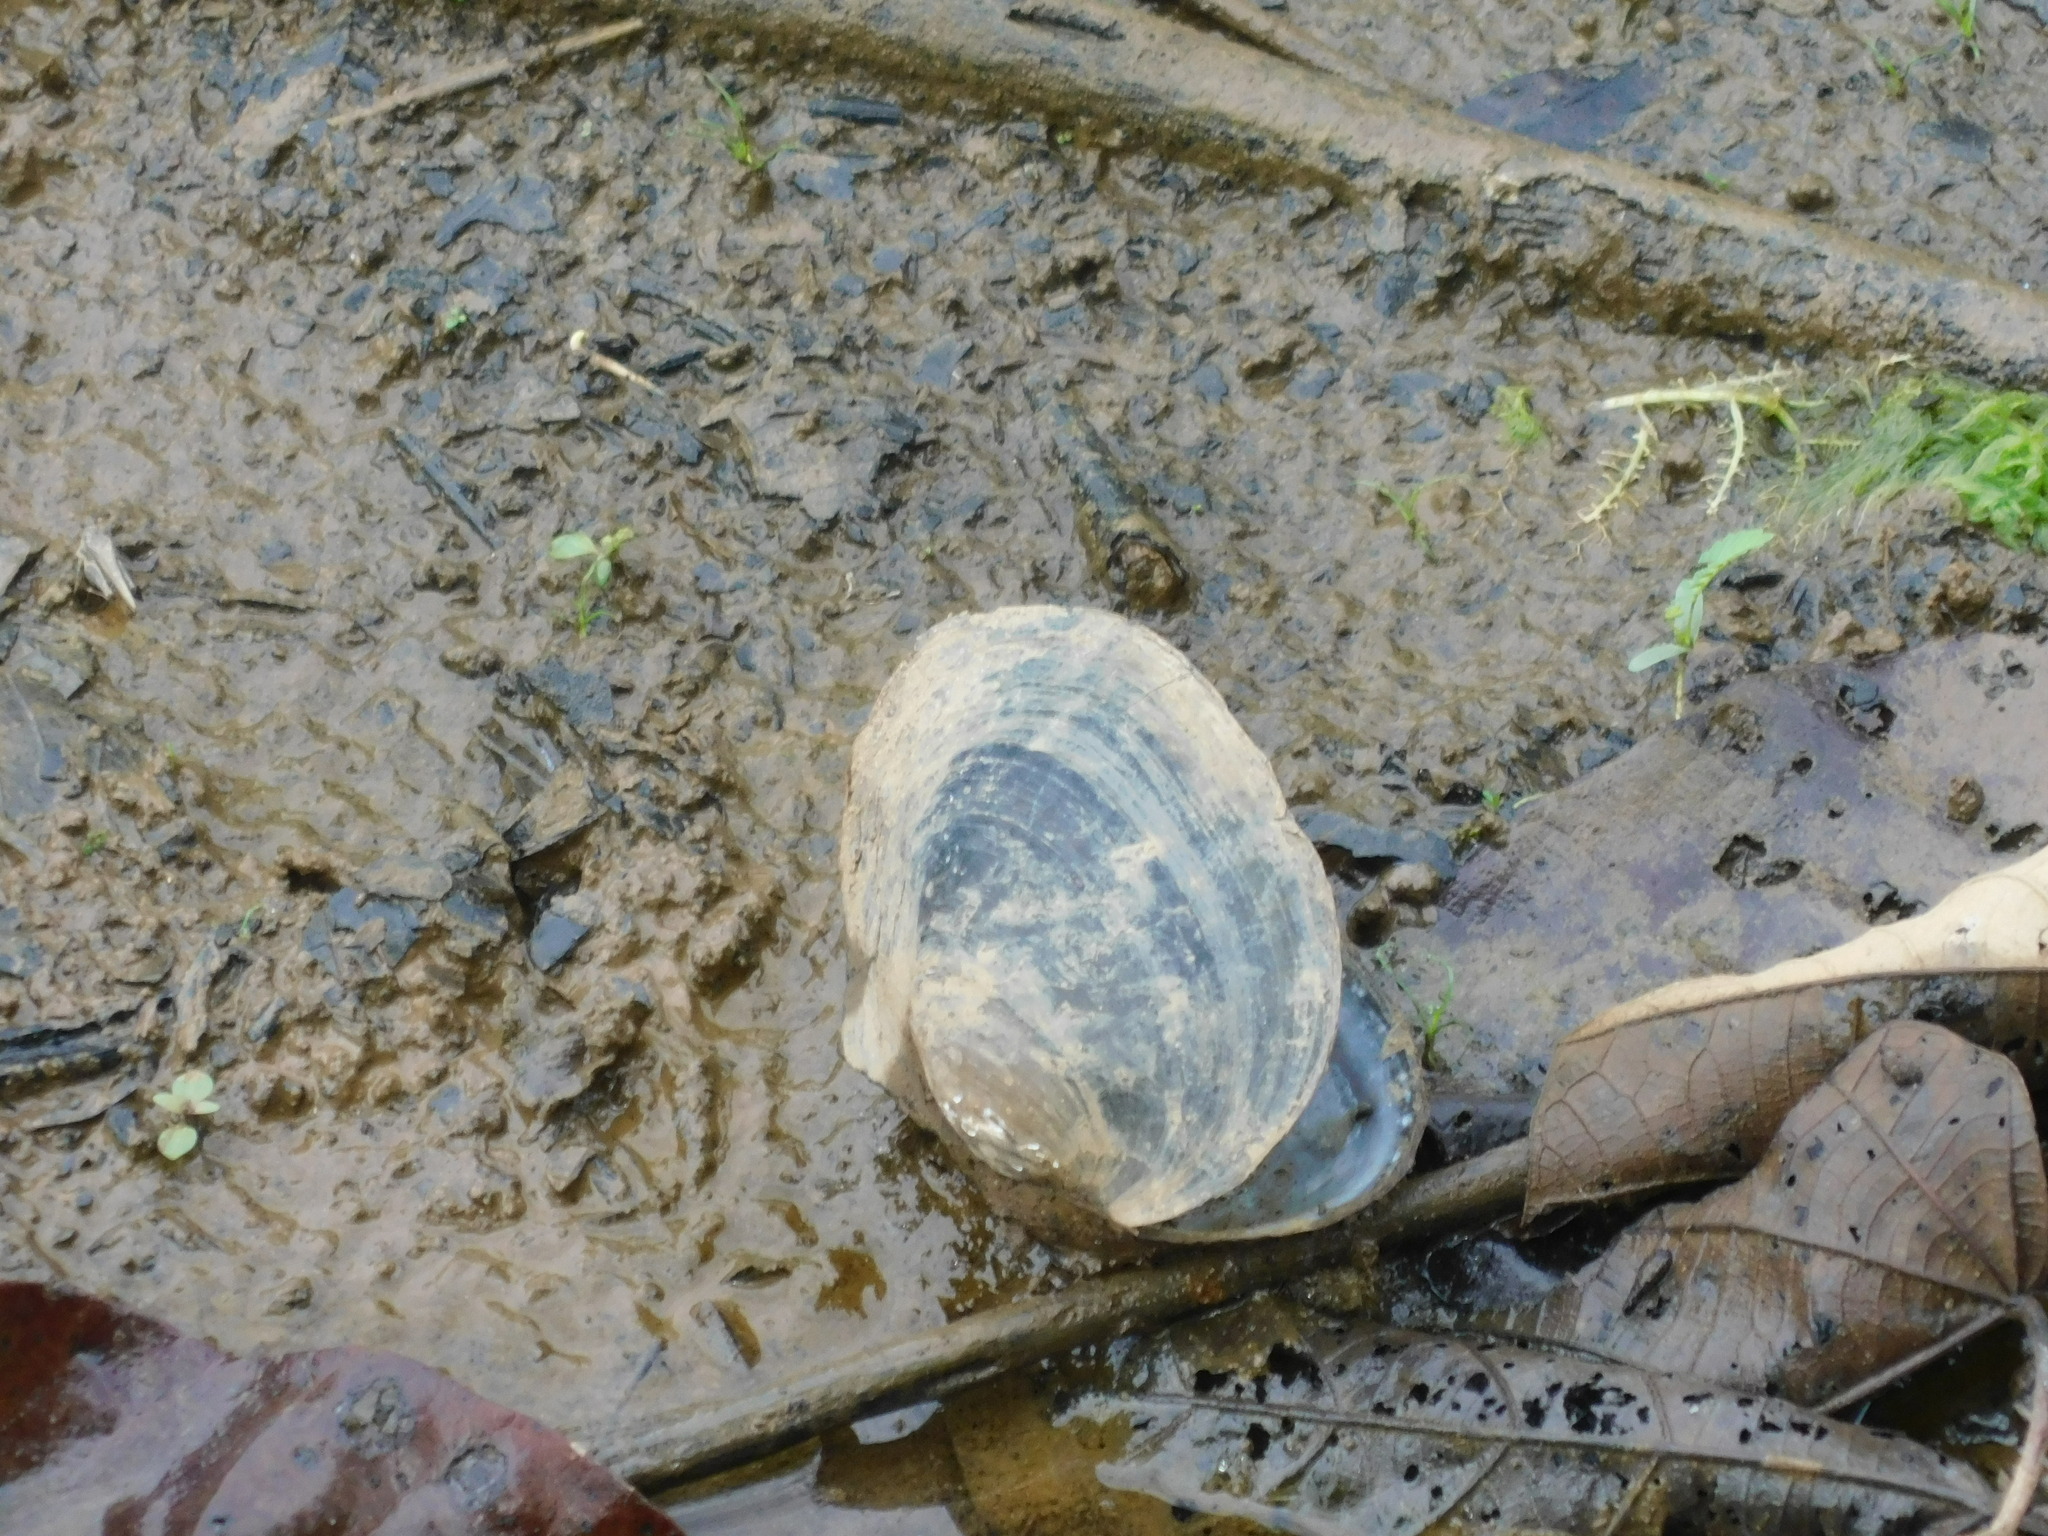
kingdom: Animalia
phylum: Mollusca
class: Bivalvia
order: Unionida
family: Unionidae
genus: Sinanodonta
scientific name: Sinanodonta woodiana
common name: Chinese pond mussel
